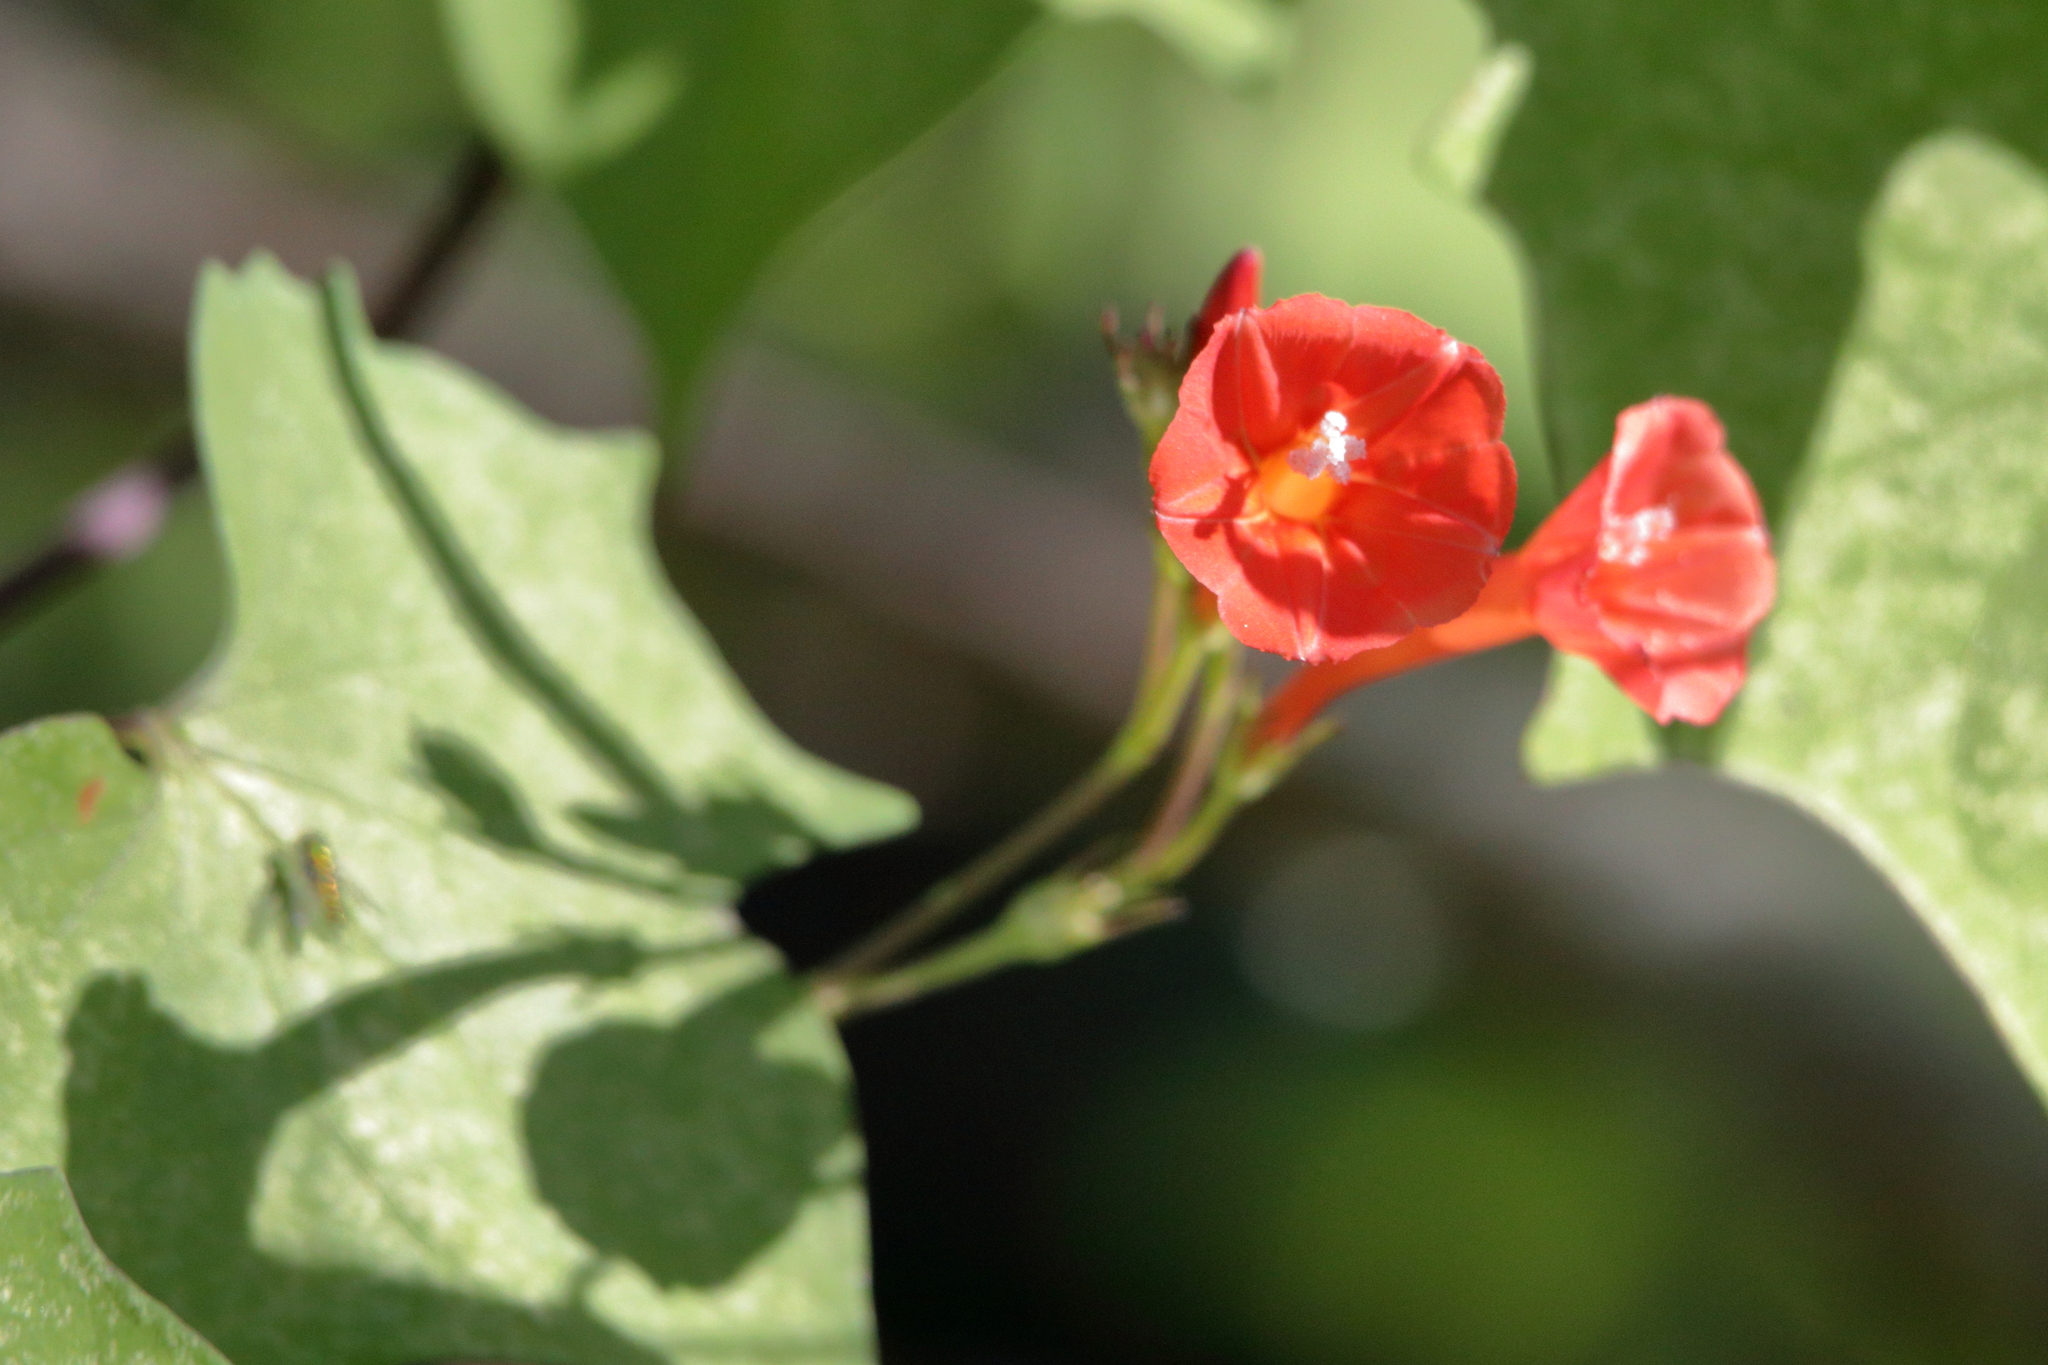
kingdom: Plantae
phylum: Tracheophyta
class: Magnoliopsida
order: Solanales
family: Convolvulaceae
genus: Ipomoea
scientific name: Ipomoea hederifolia
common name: Ivy-leaf morning-glory
